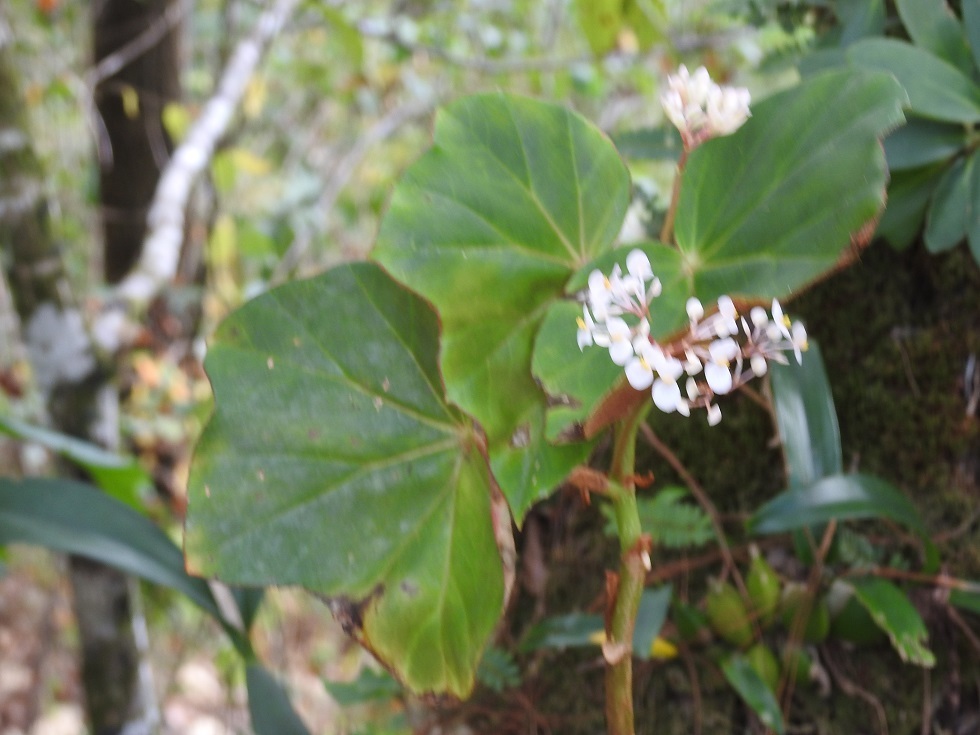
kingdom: Plantae
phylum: Tracheophyta
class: Magnoliopsida
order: Cucurbitales
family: Begoniaceae
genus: Begonia
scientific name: Begonia pinetorum
